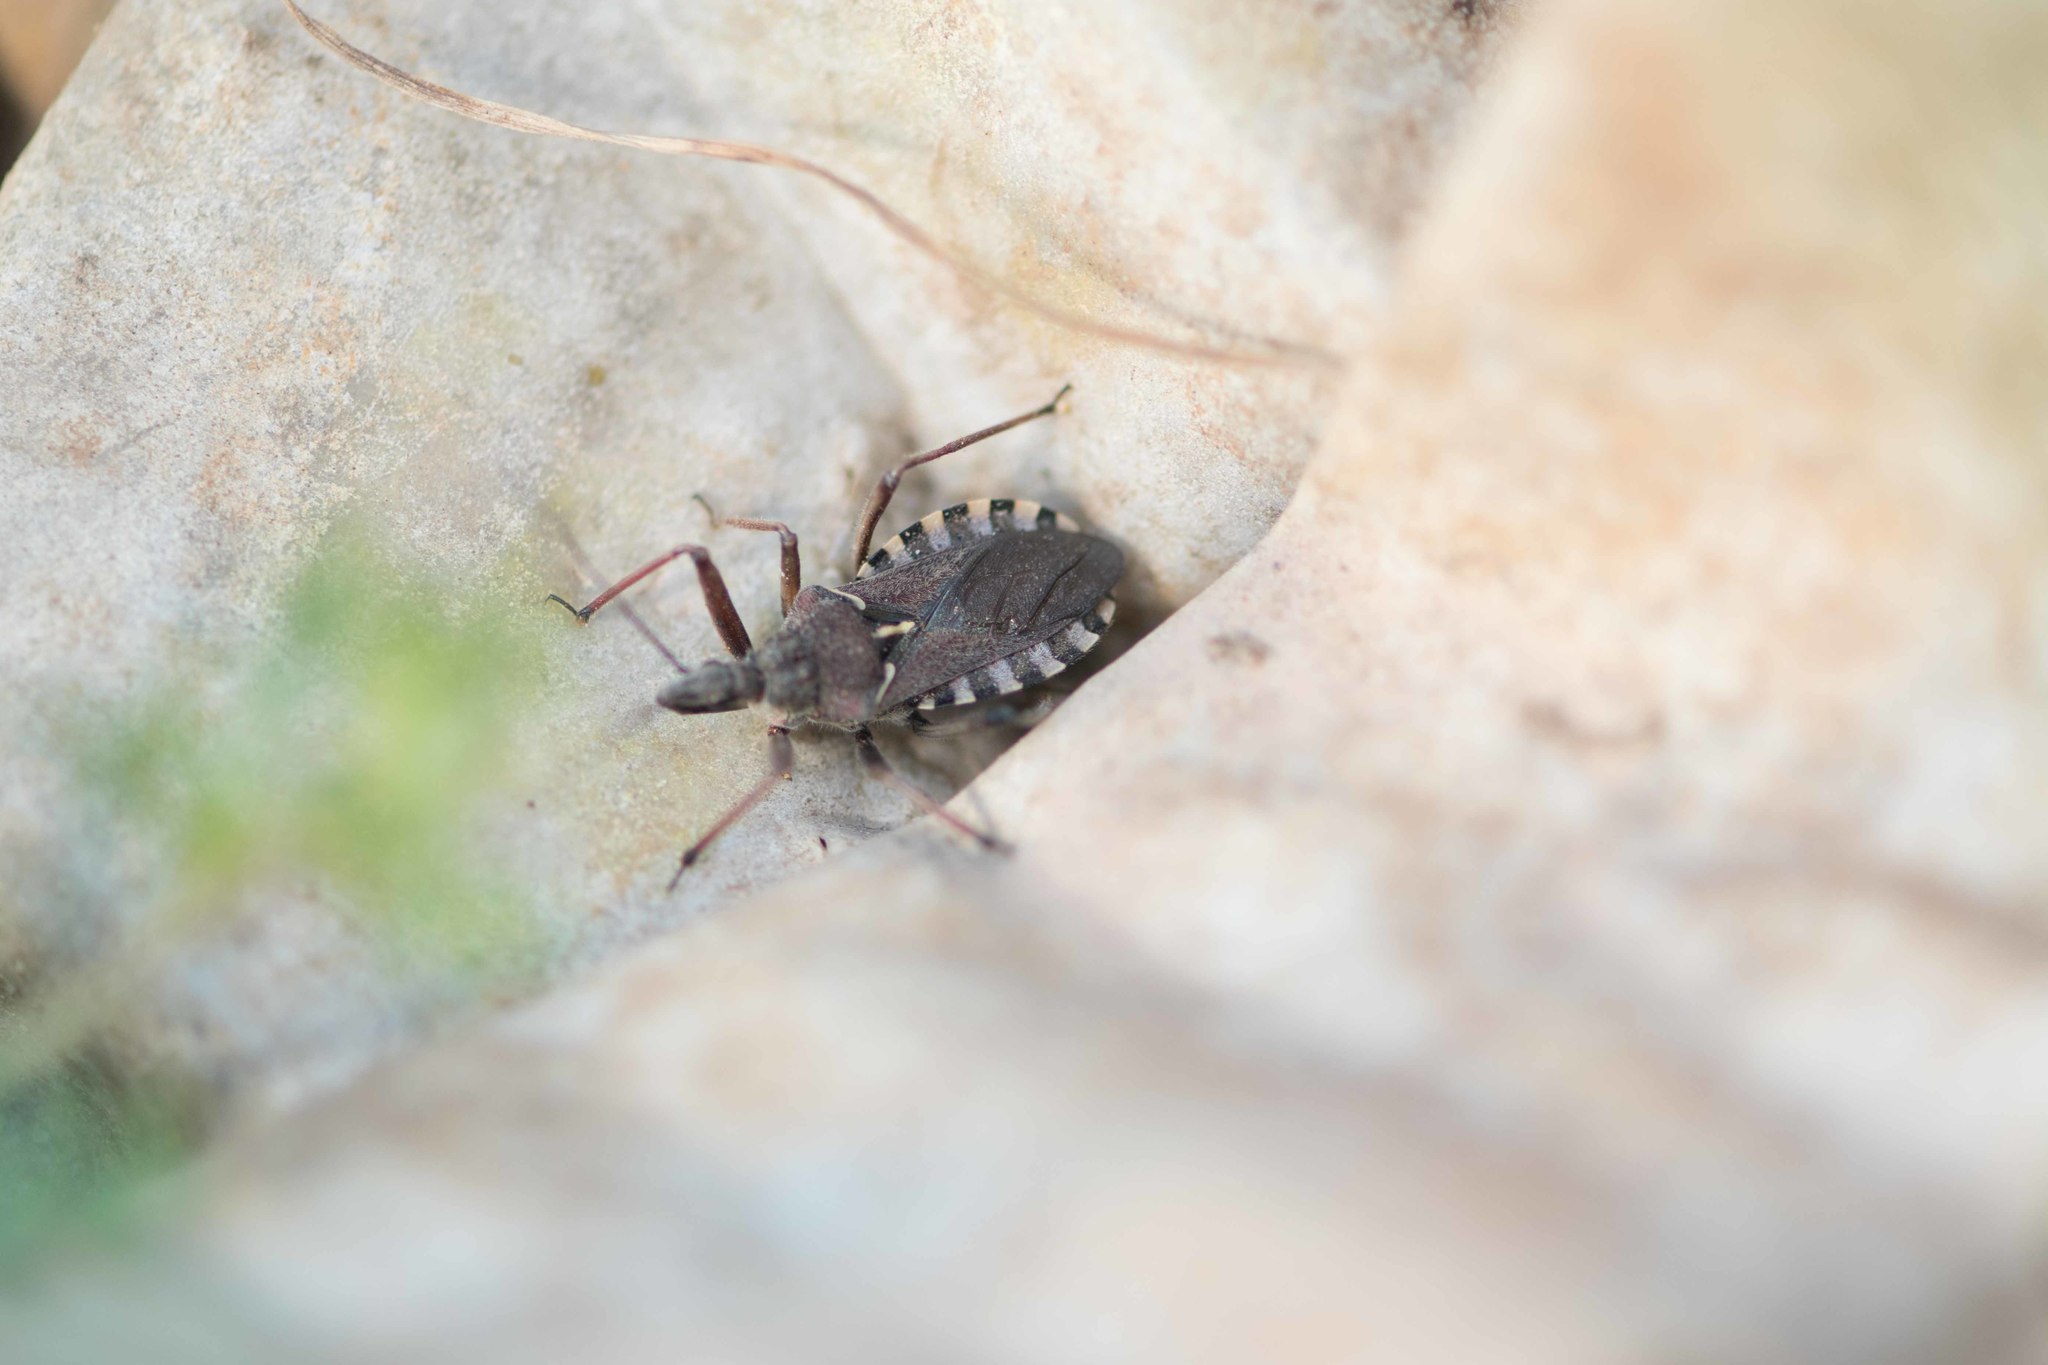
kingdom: Animalia
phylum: Arthropoda
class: Insecta
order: Hemiptera
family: Reduviidae
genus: Rhynocoris
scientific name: Rhynocoris erythropus
